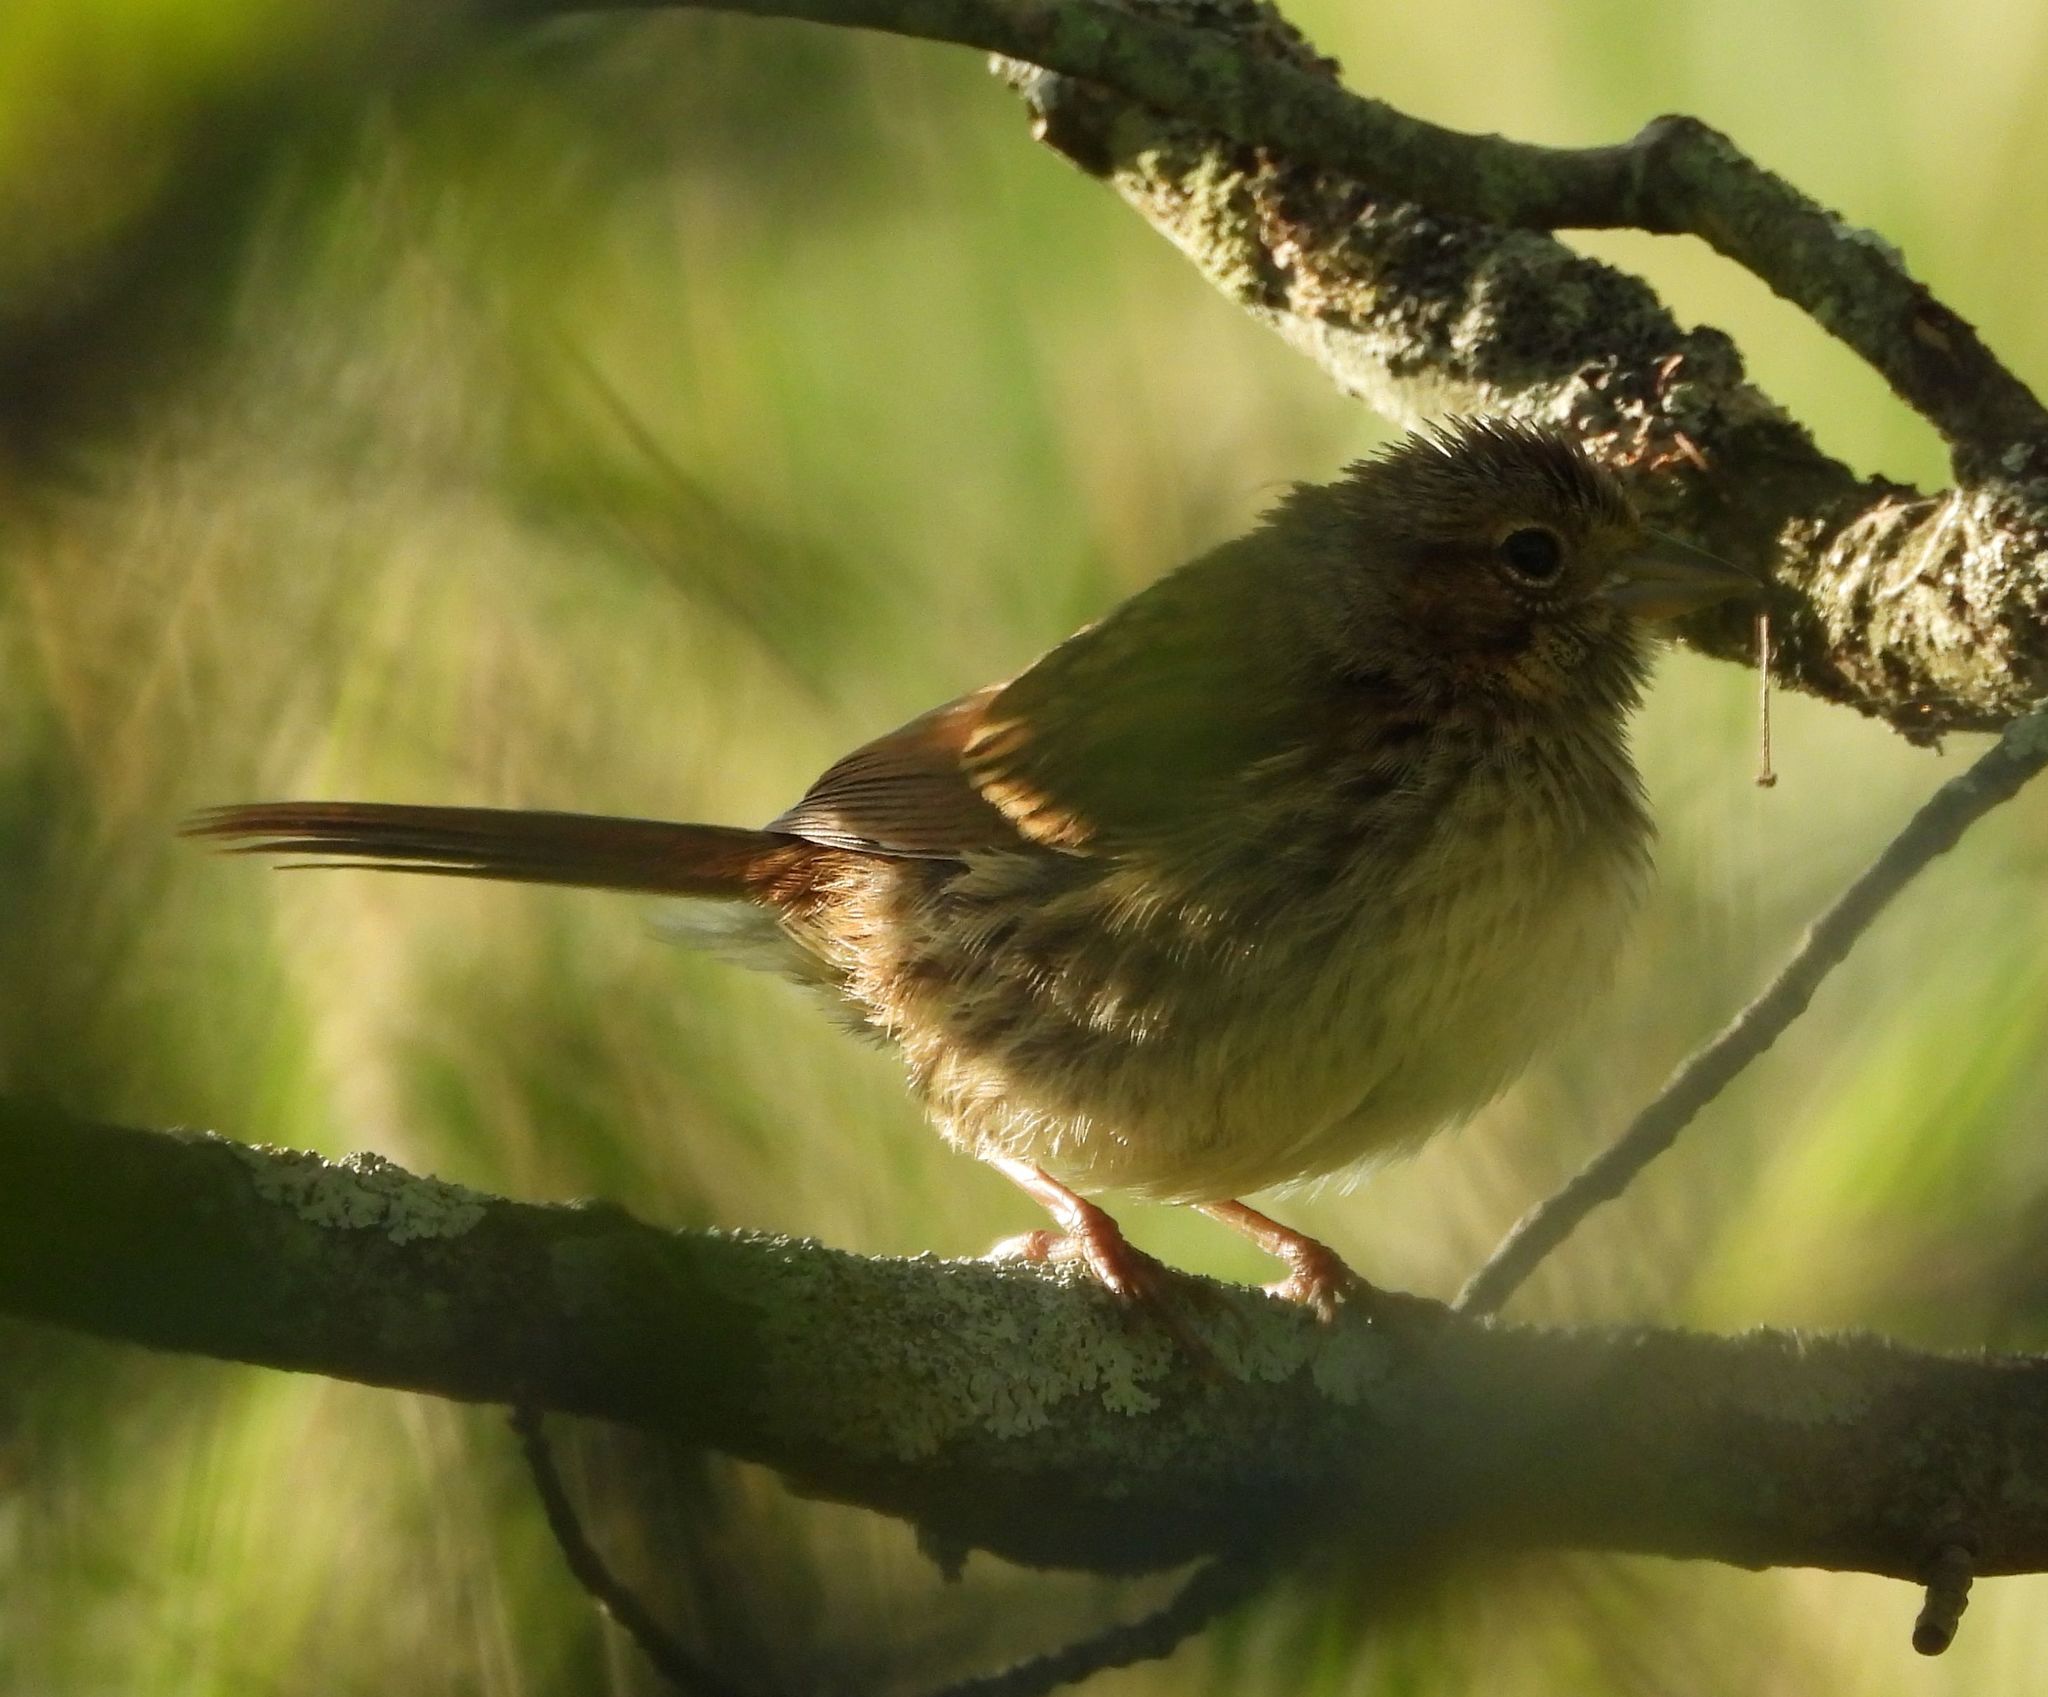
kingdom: Animalia
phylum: Chordata
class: Aves
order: Passeriformes
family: Passerellidae
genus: Melospiza
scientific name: Melospiza melodia
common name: Song sparrow
